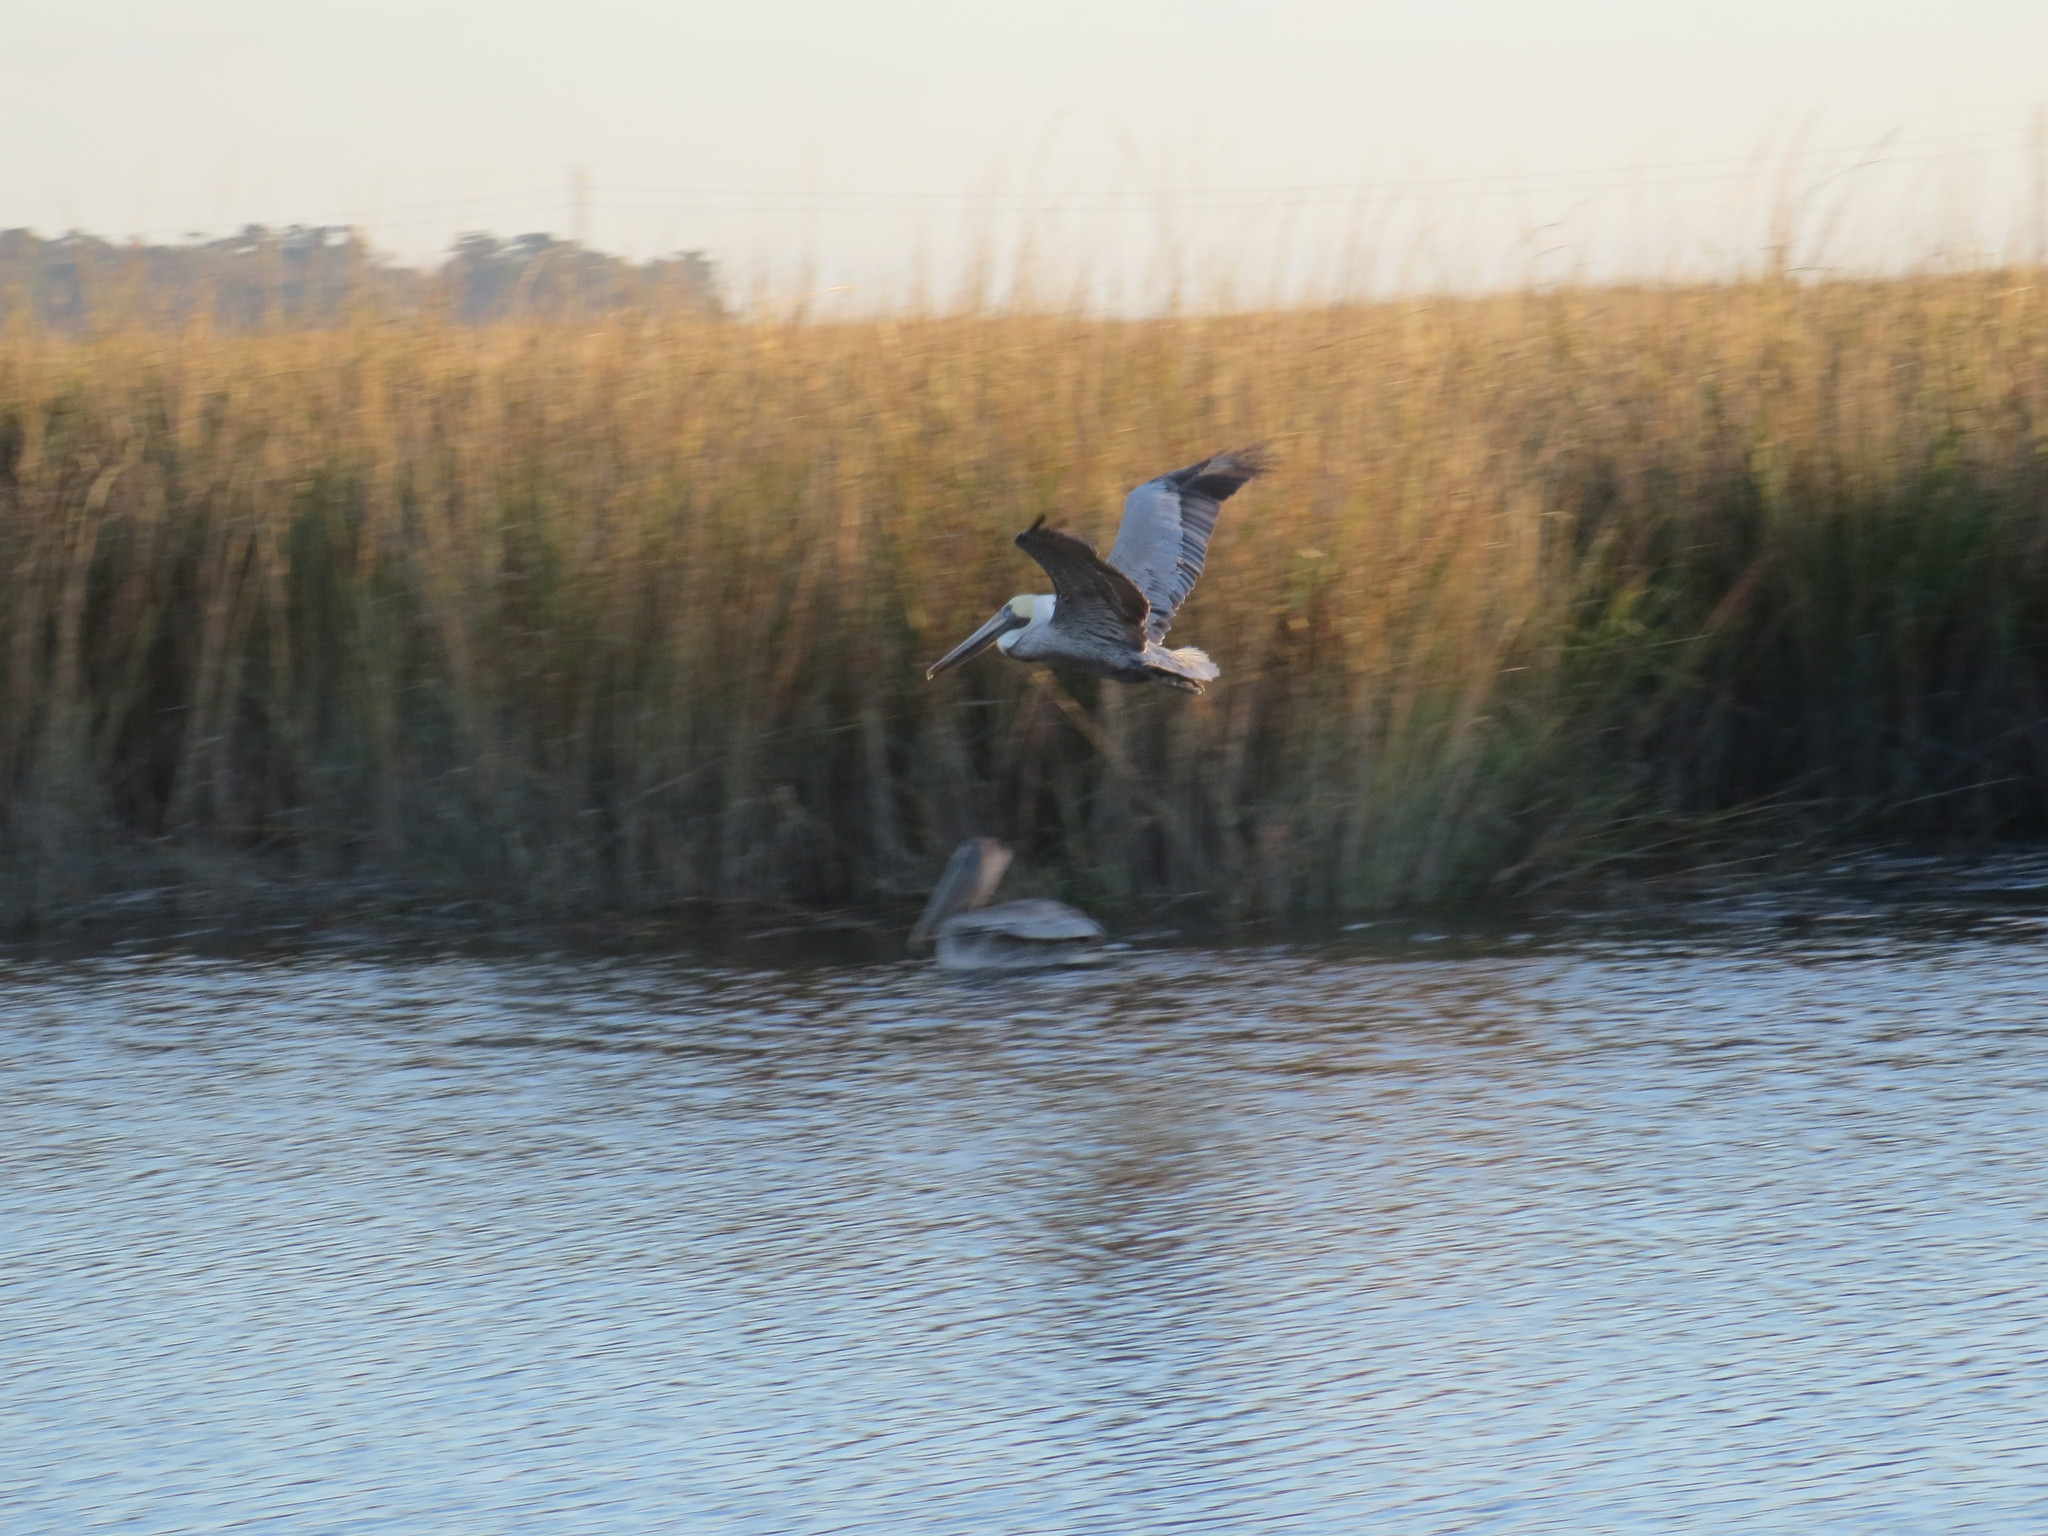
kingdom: Animalia
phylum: Chordata
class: Aves
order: Pelecaniformes
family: Pelecanidae
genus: Pelecanus
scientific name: Pelecanus occidentalis
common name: Brown pelican
